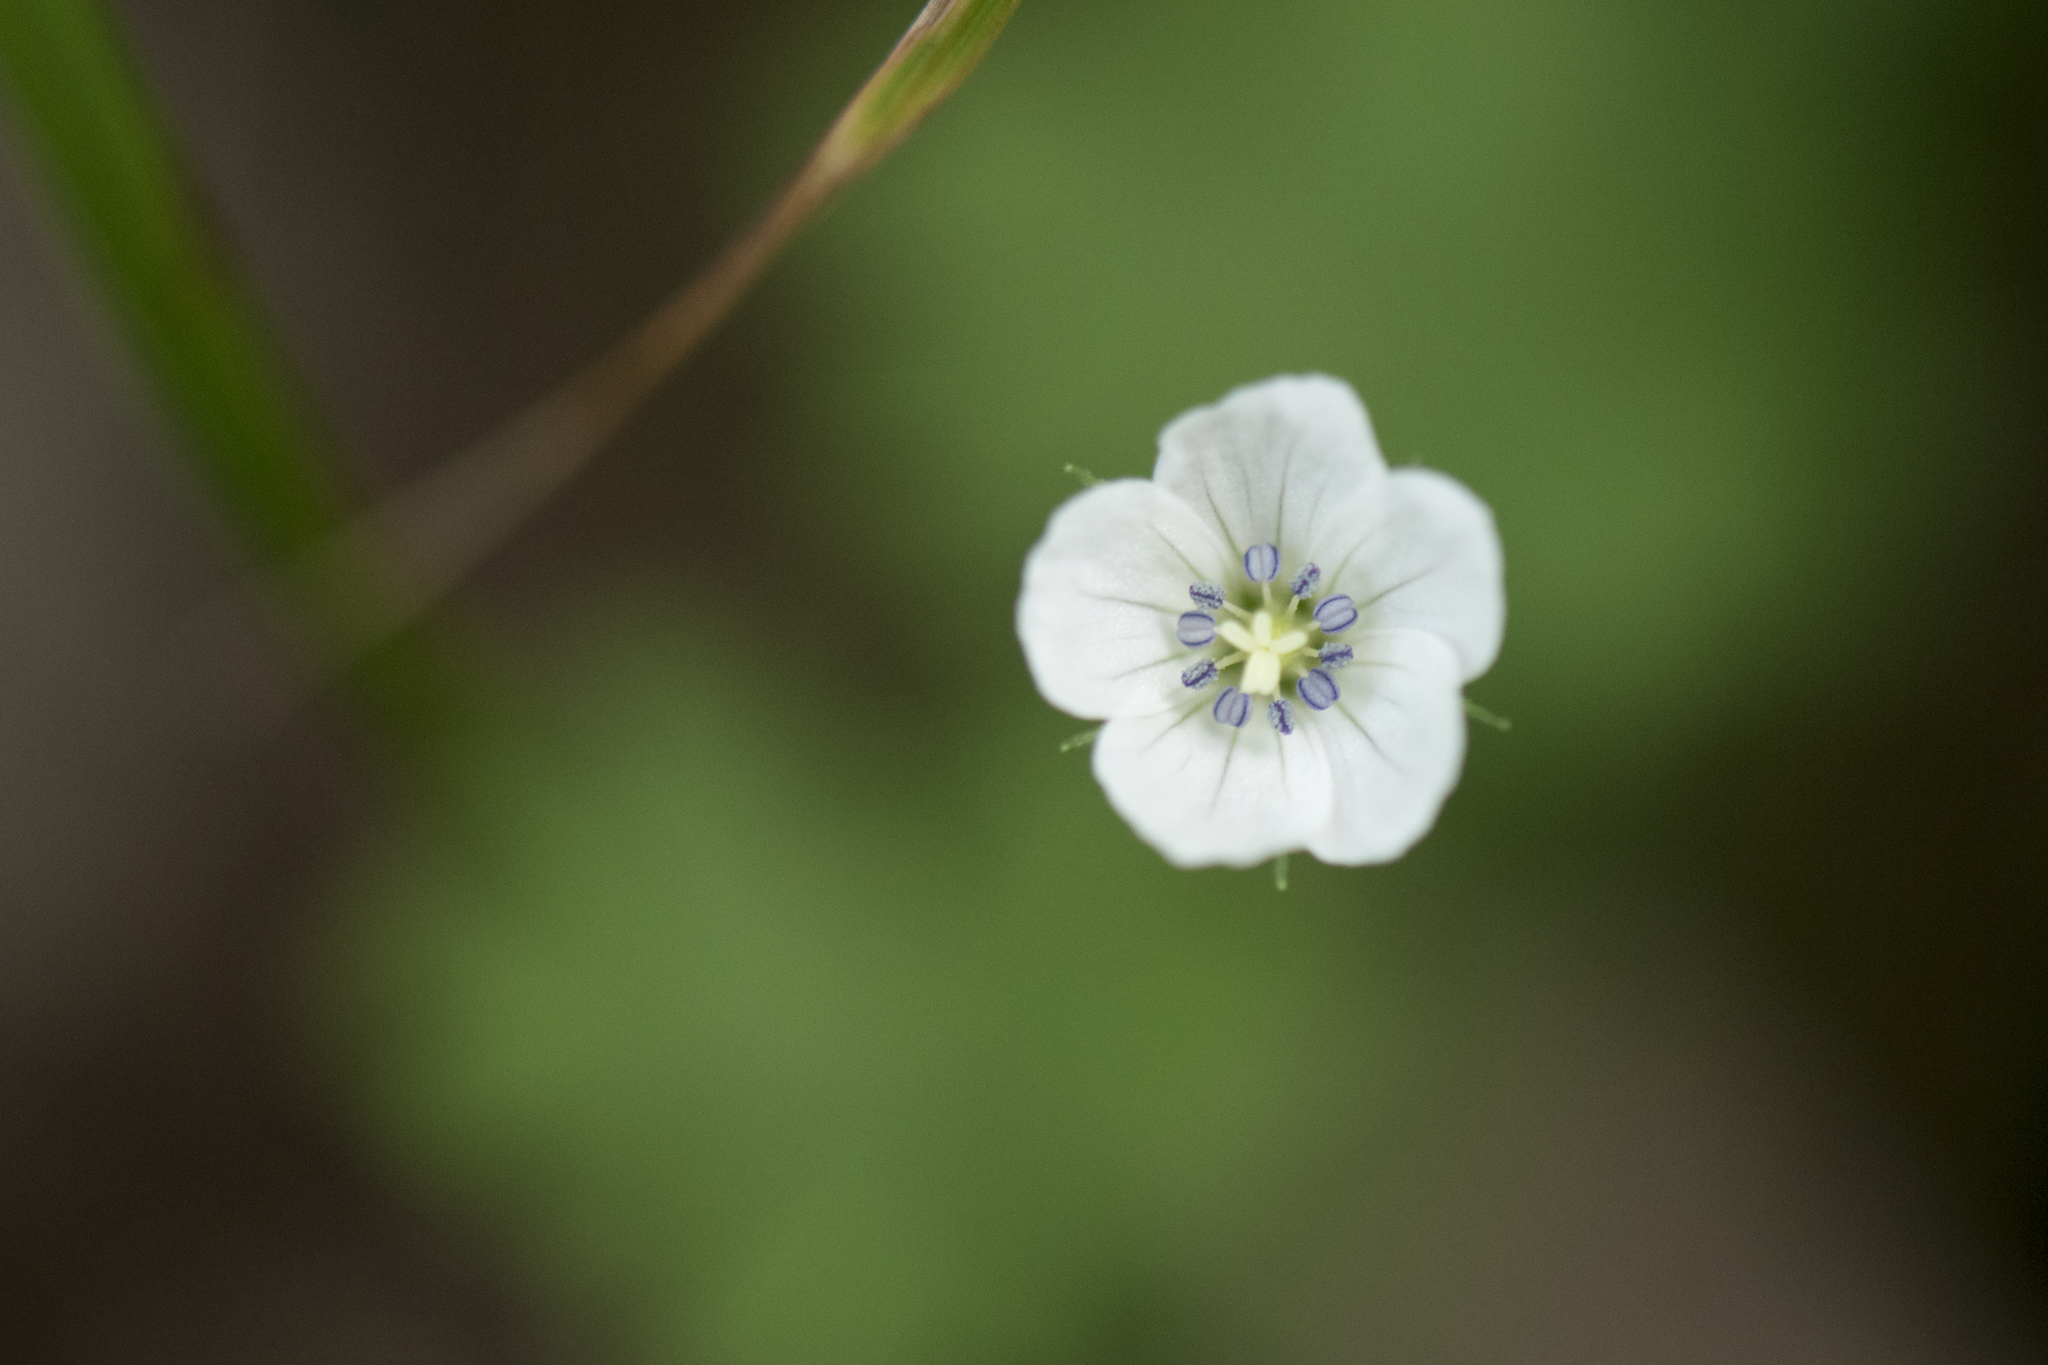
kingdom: Plantae
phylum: Tracheophyta
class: Magnoliopsida
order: Geraniales
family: Geraniaceae
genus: Geranium
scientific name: Geranium suzukii
